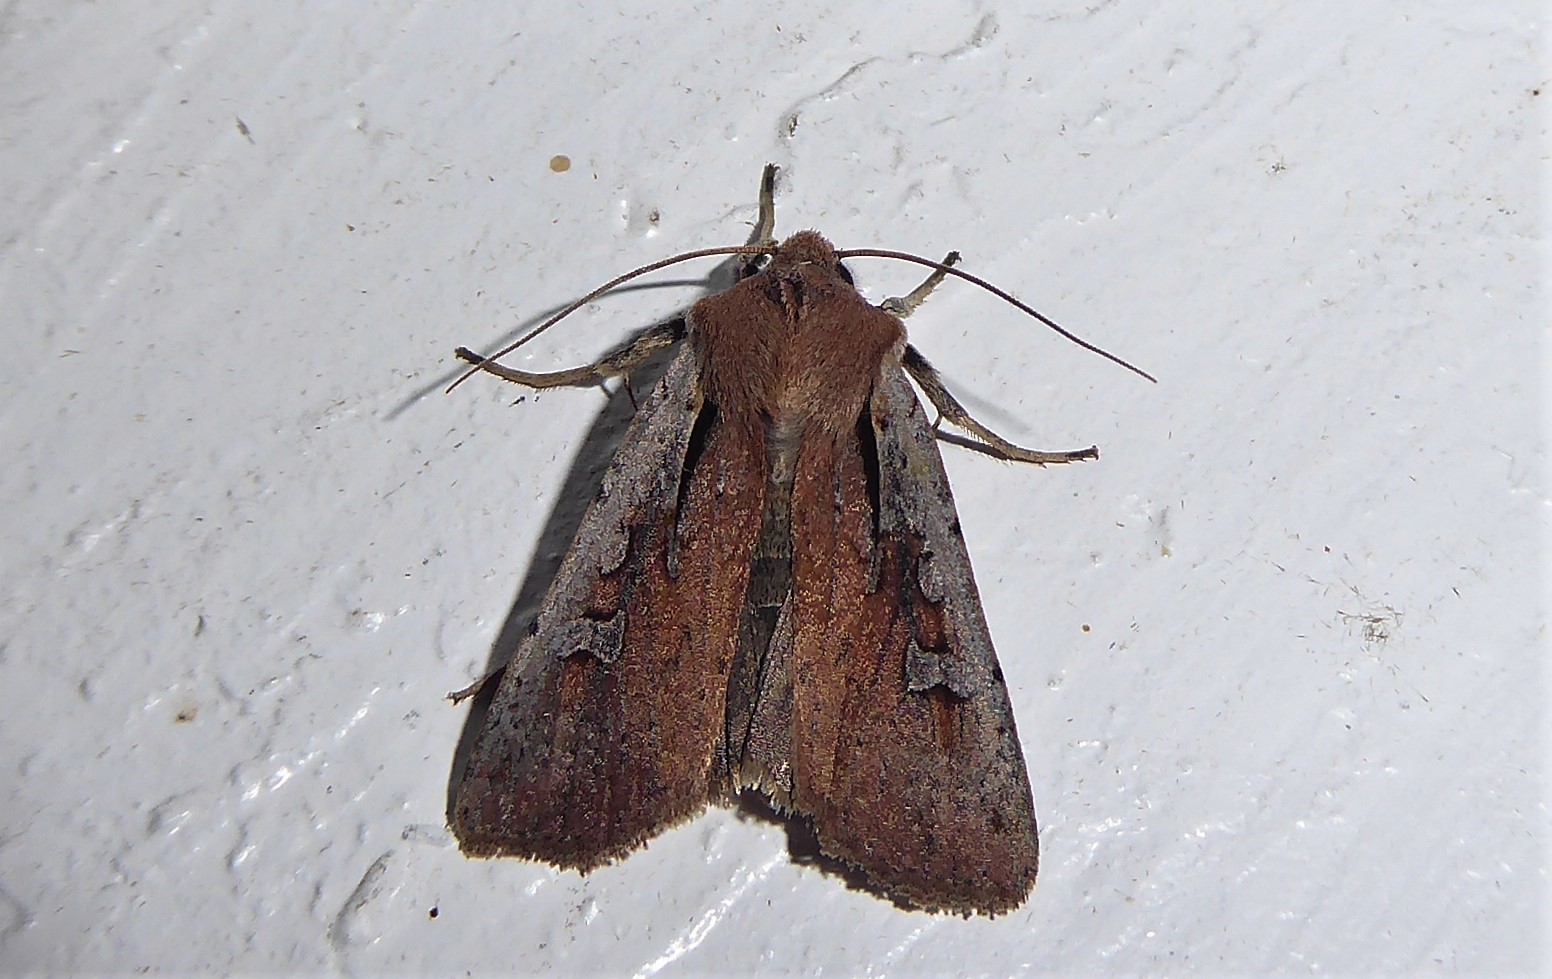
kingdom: Animalia
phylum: Arthropoda
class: Insecta
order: Lepidoptera
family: Noctuidae
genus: Ichneutica
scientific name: Ichneutica atristriga
